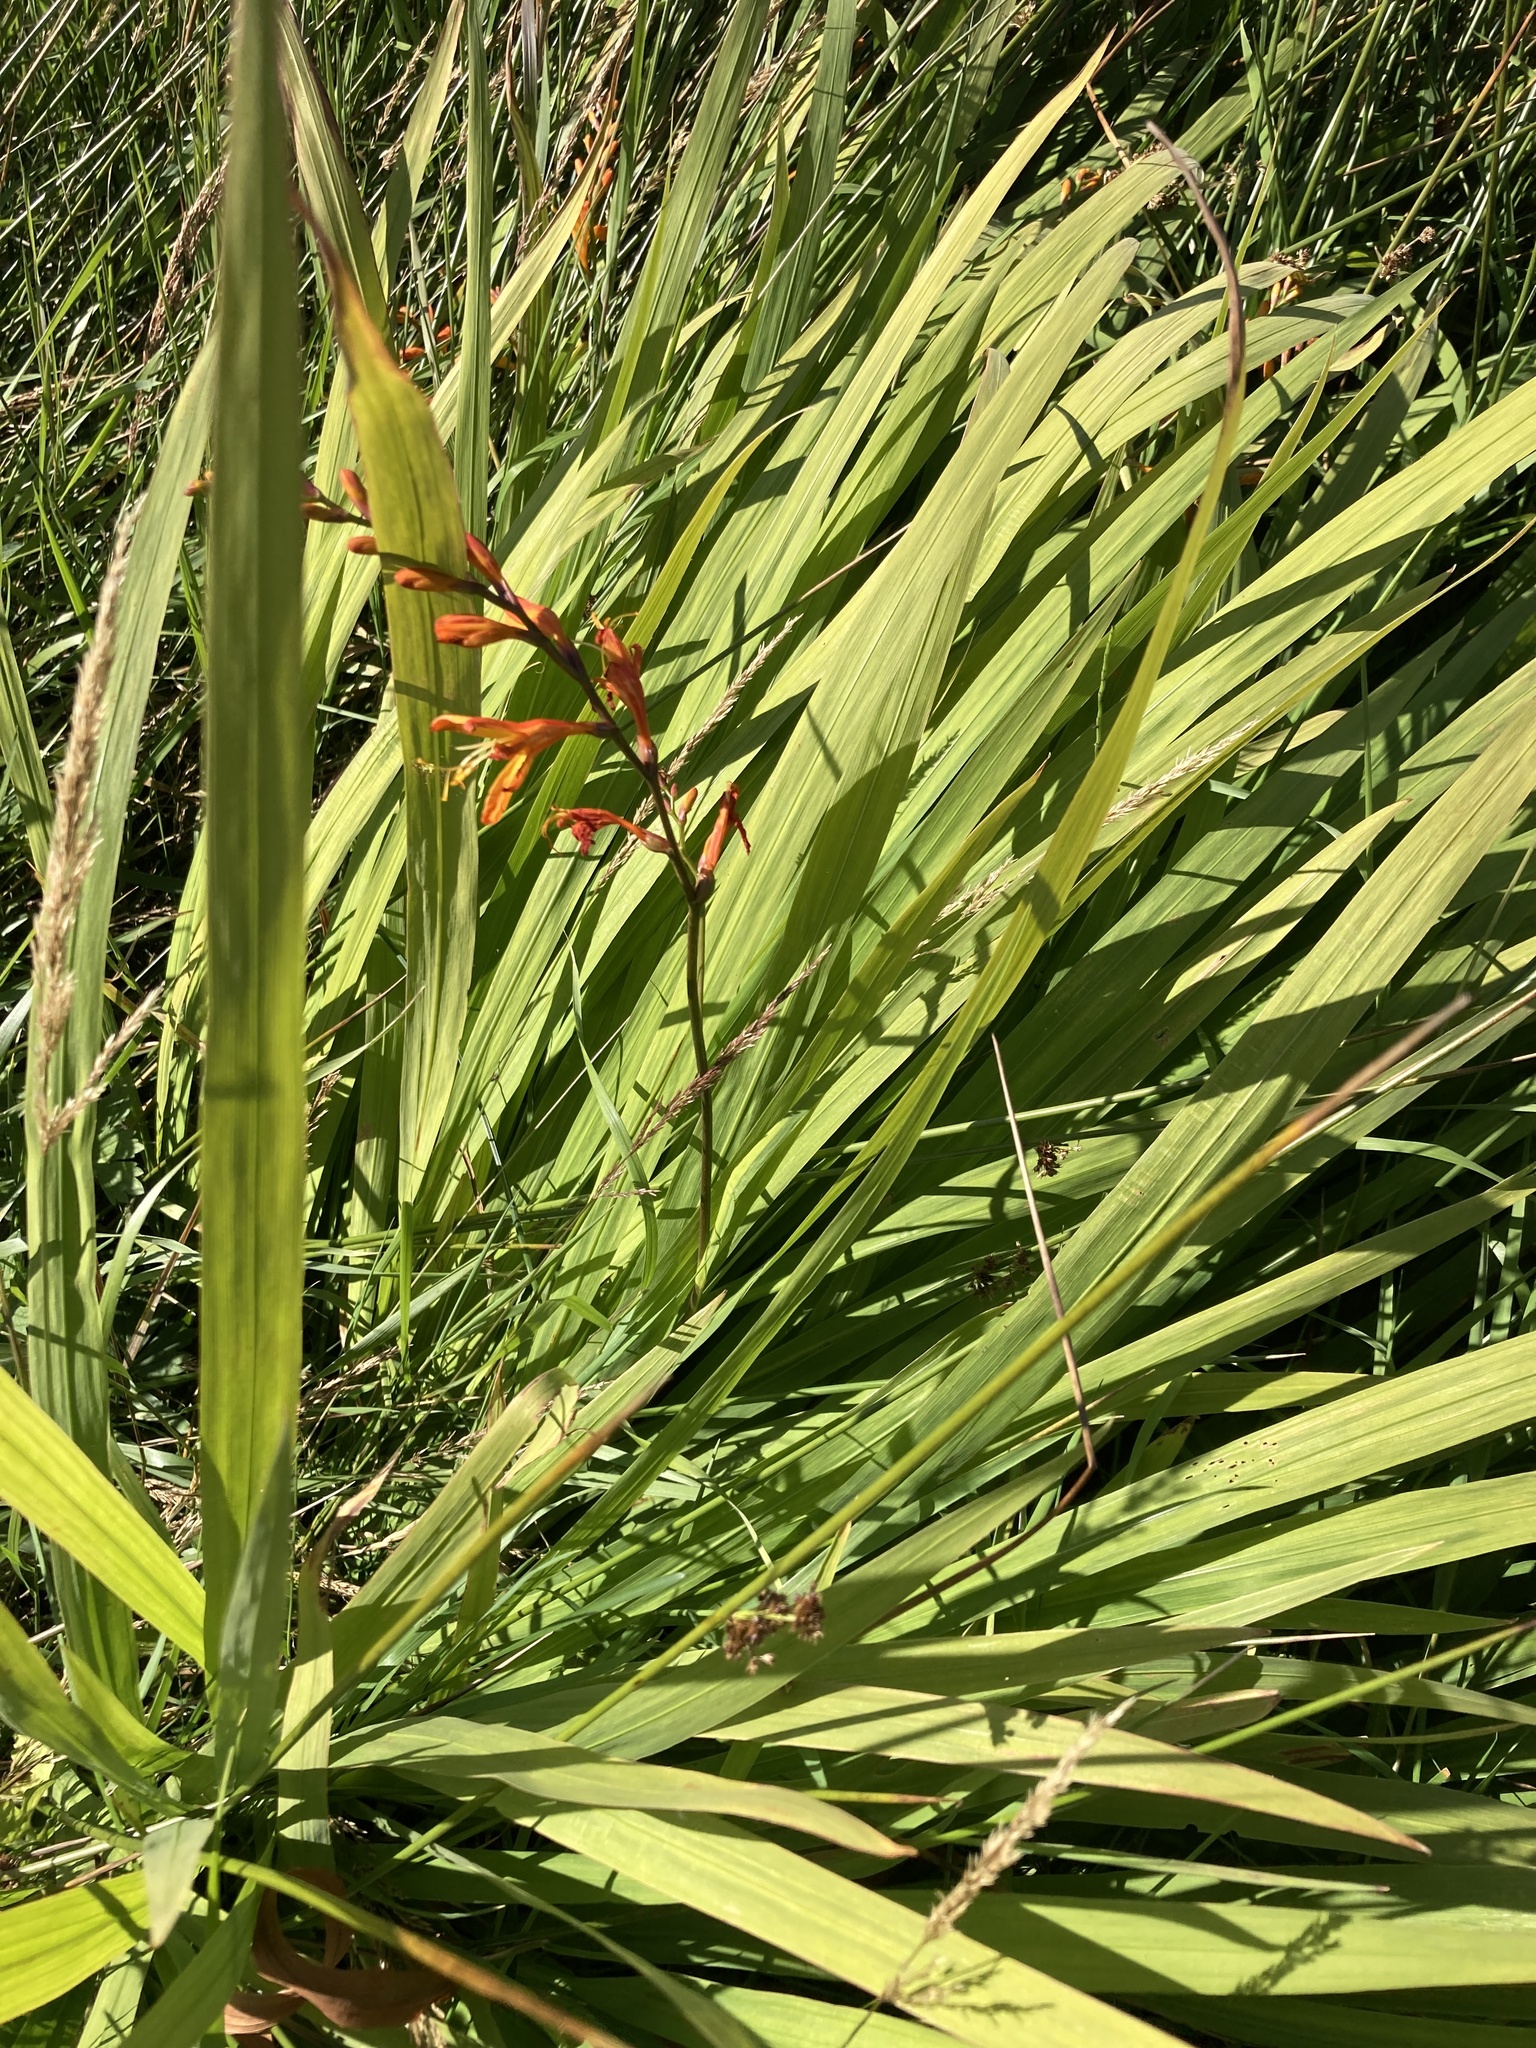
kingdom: Plantae
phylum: Tracheophyta
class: Liliopsida
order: Asparagales
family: Iridaceae
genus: Crocosmia
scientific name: Crocosmia crocosmiiflora
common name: Montbretia
